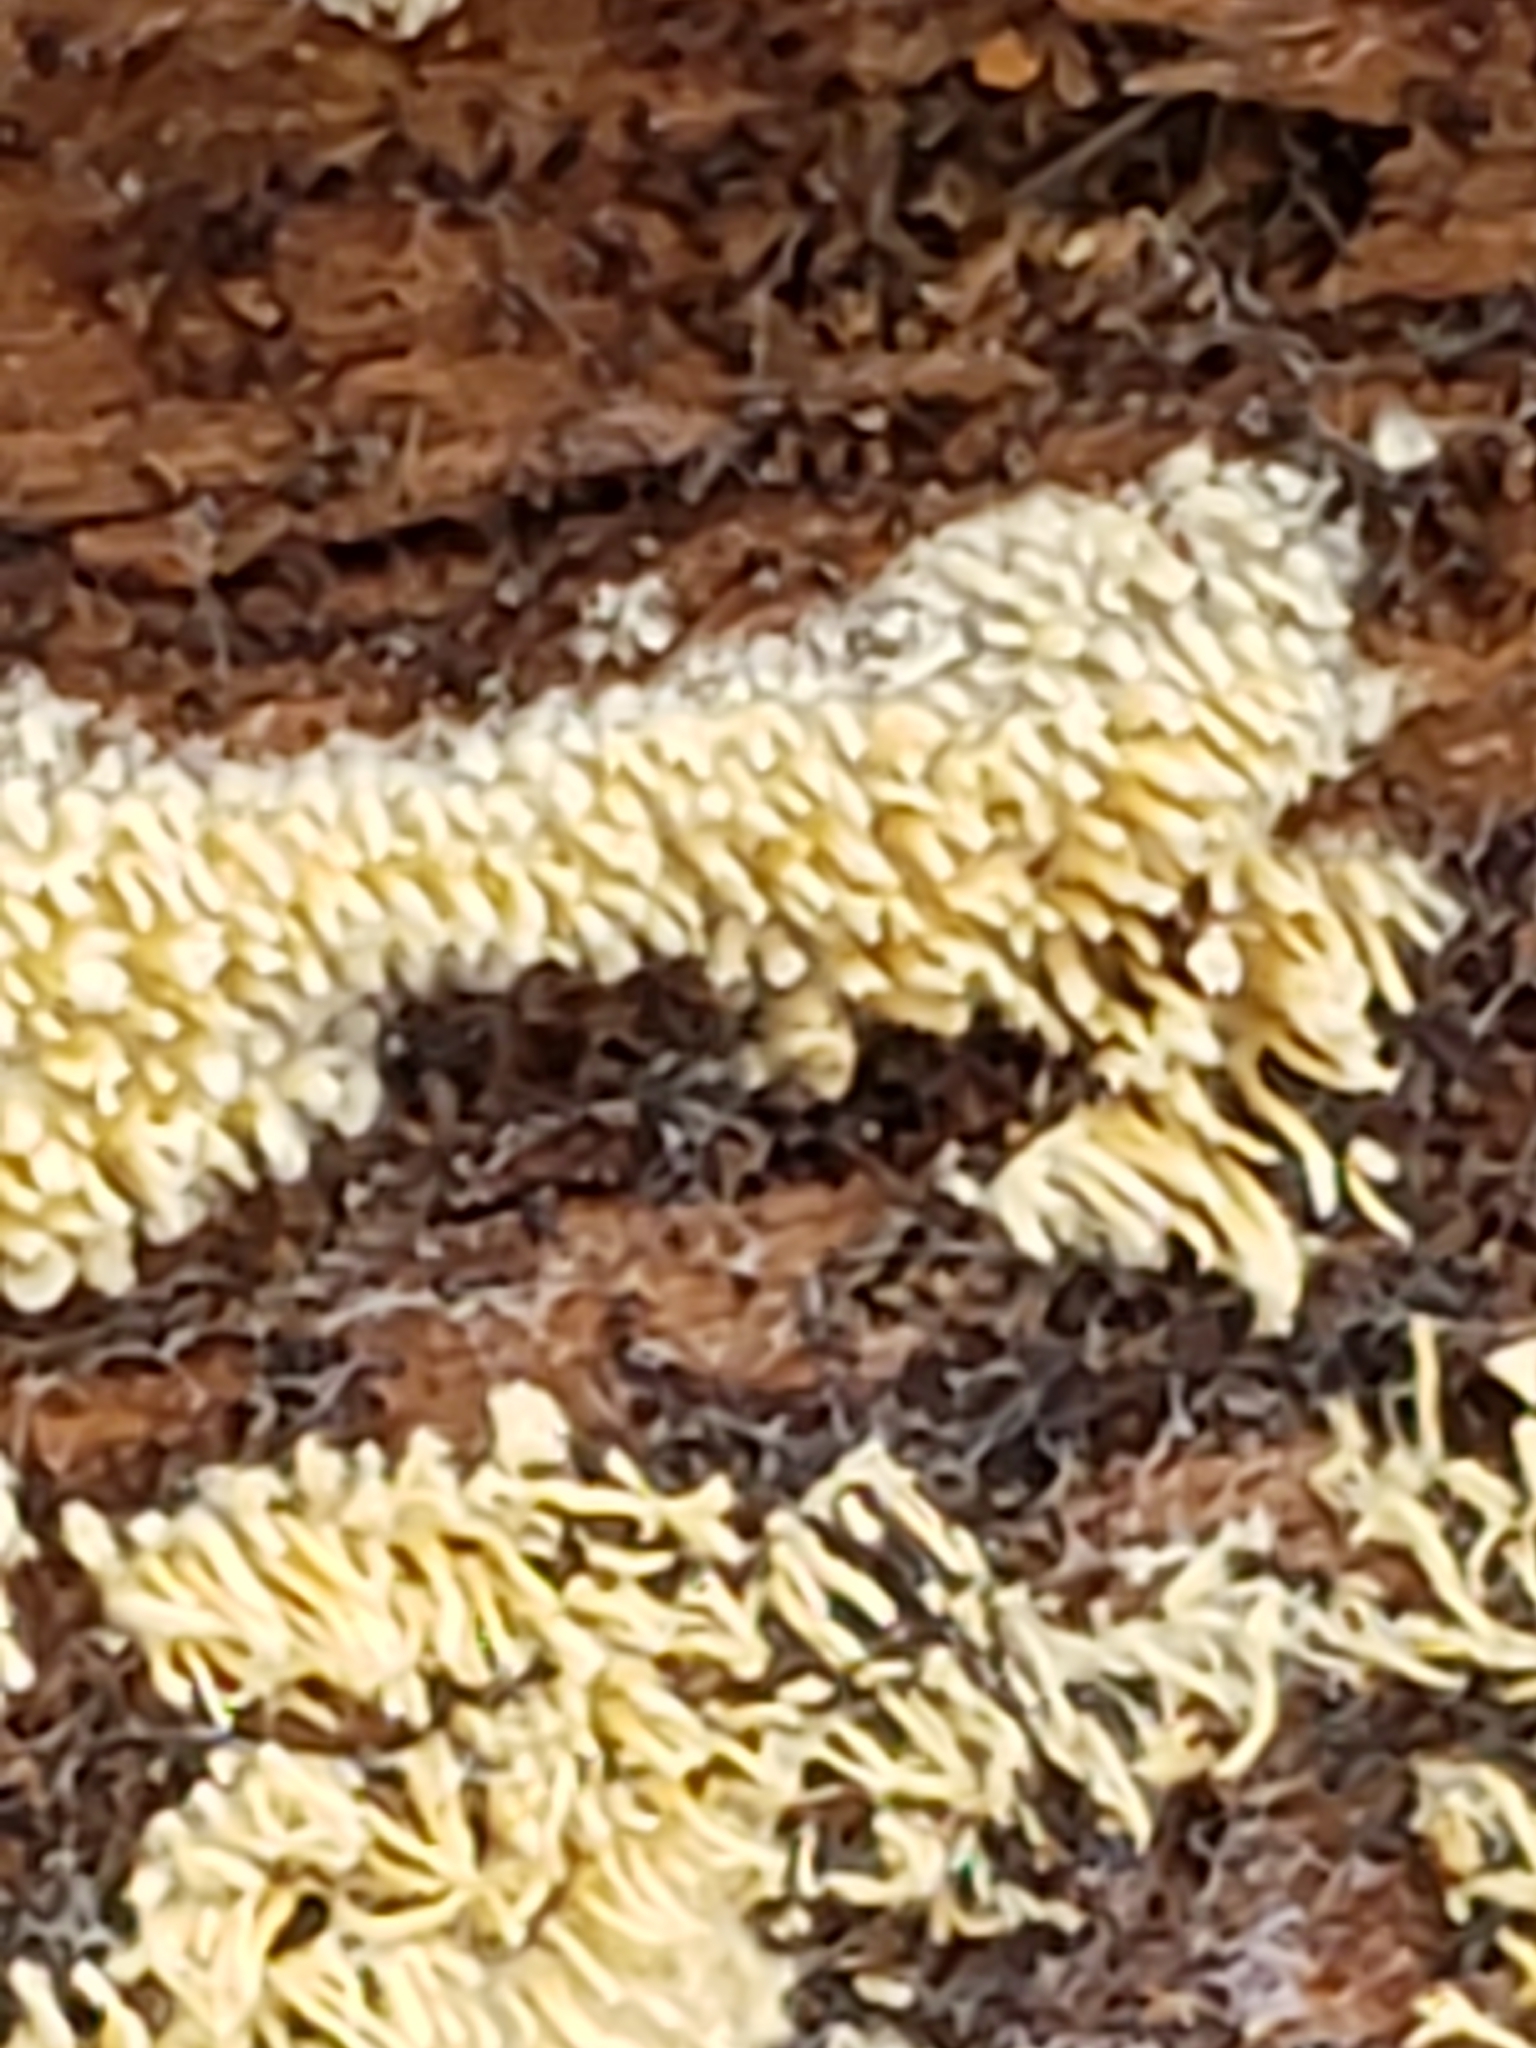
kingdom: Fungi
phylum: Basidiomycota
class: Agaricomycetes
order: Agaricales
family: Radulomycetaceae
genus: Radulomyces
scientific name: Radulomyces copelandii
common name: Asian beauty
